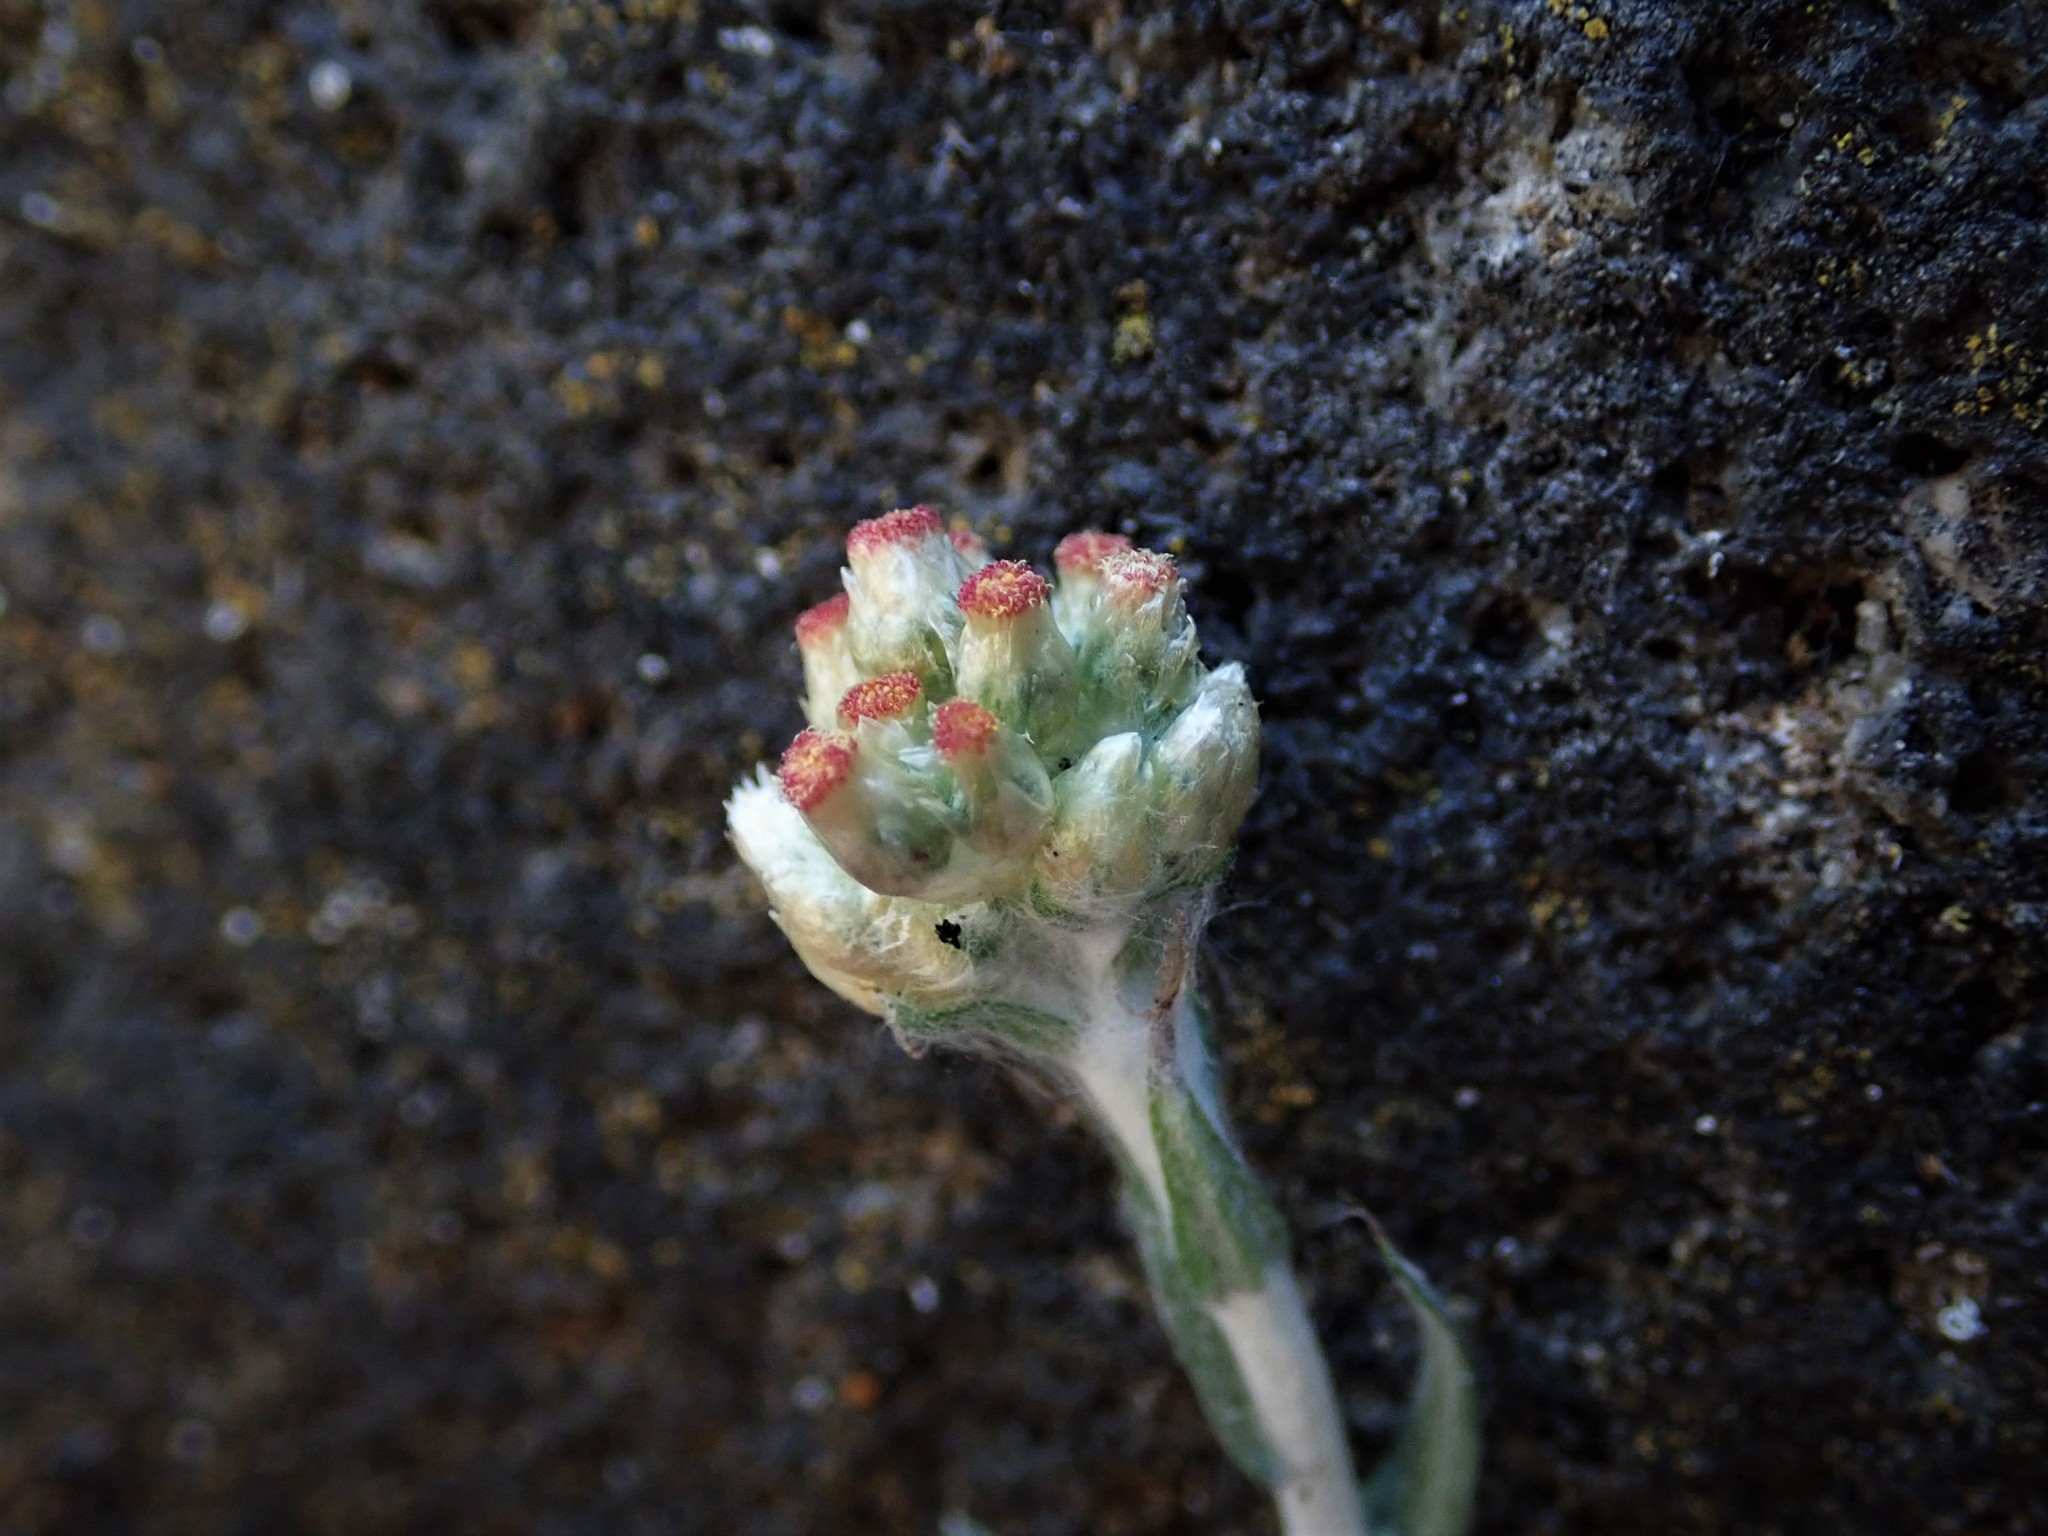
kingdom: Plantae
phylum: Tracheophyta
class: Magnoliopsida
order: Asterales
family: Asteraceae
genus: Helichrysum
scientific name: Helichrysum luteoalbum
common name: Daisy
